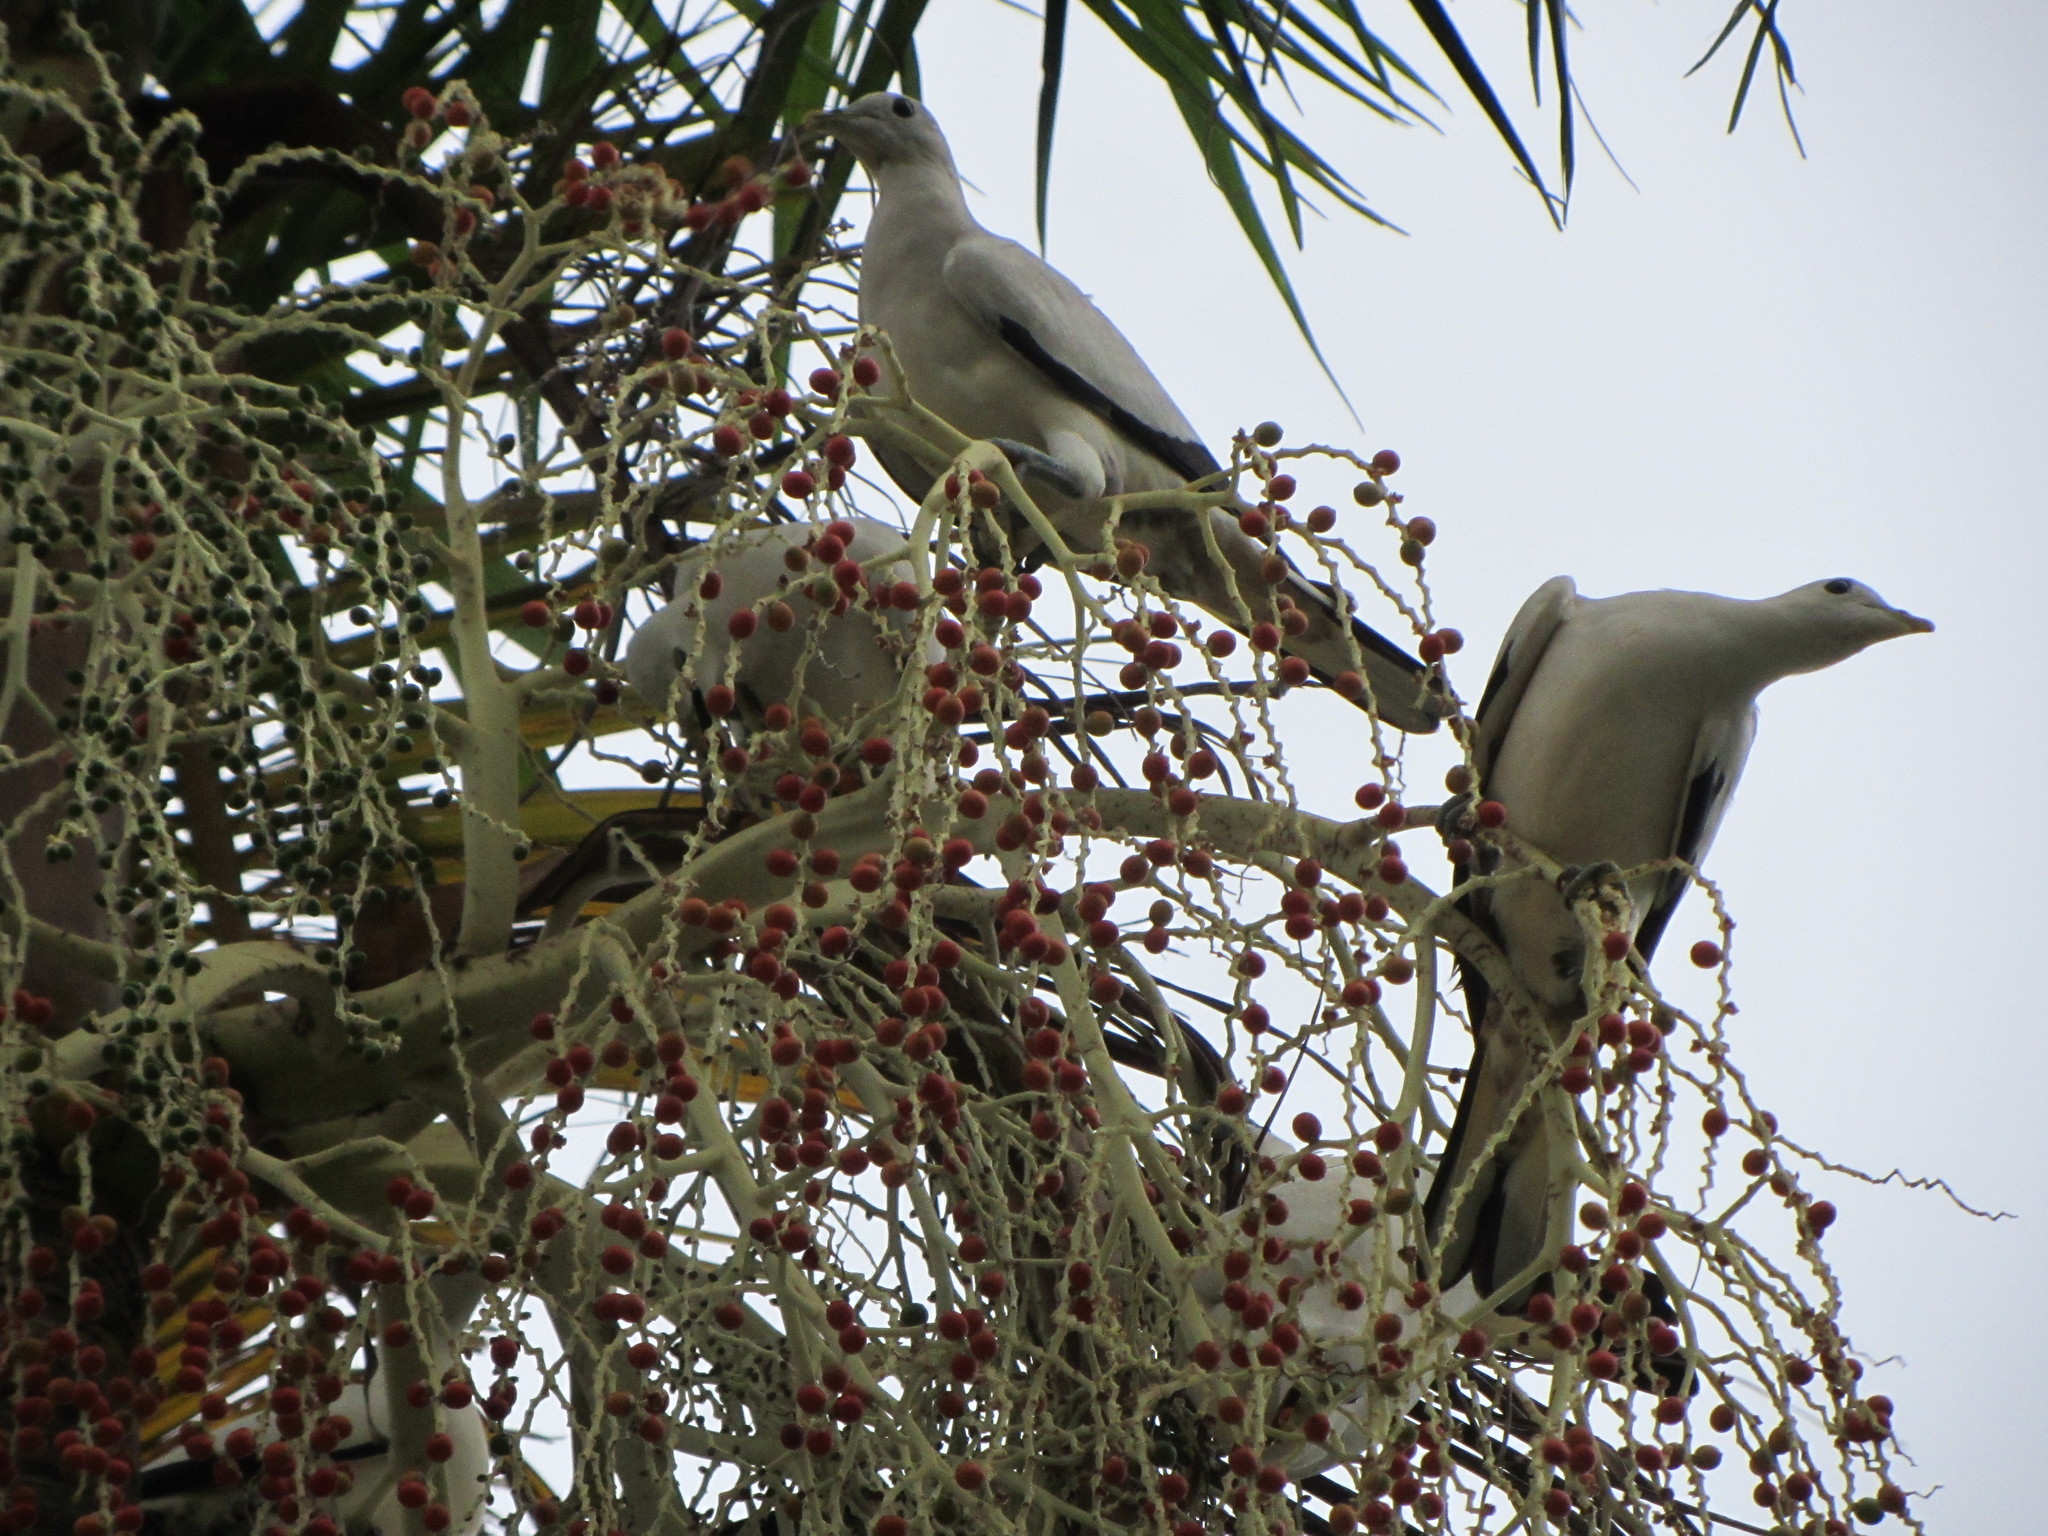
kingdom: Animalia
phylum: Chordata
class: Aves
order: Columbiformes
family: Columbidae
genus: Ducula
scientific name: Ducula spilorrhoa
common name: Torresian imperial pigeon
